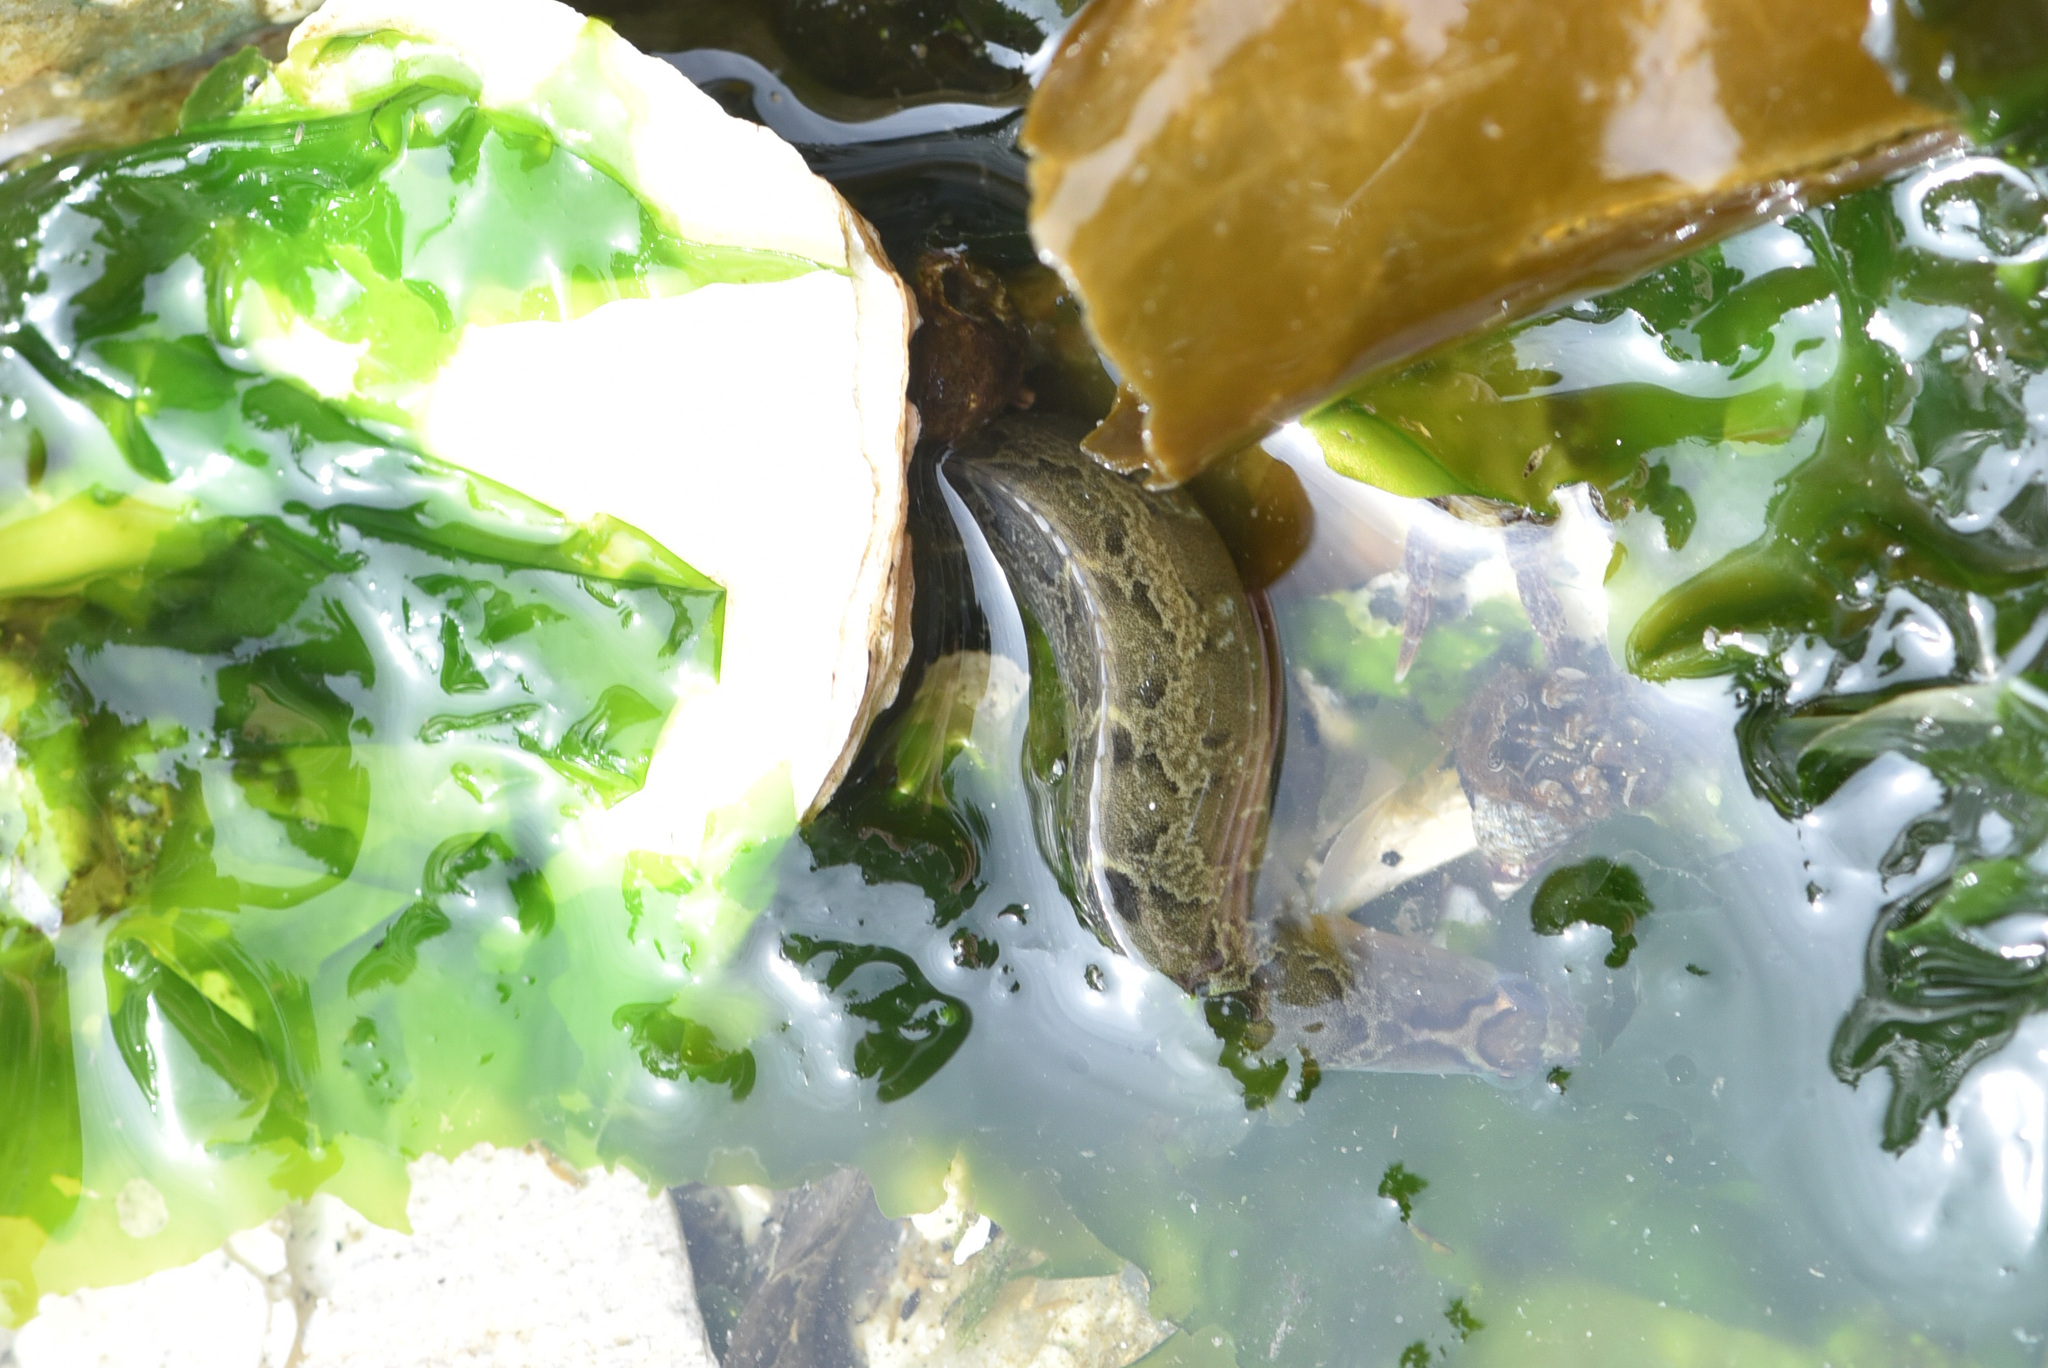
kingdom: Animalia
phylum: Chordata
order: Perciformes
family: Stichaeidae
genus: Anoplarchus
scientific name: Anoplarchus purpurescens
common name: High cockscomb
